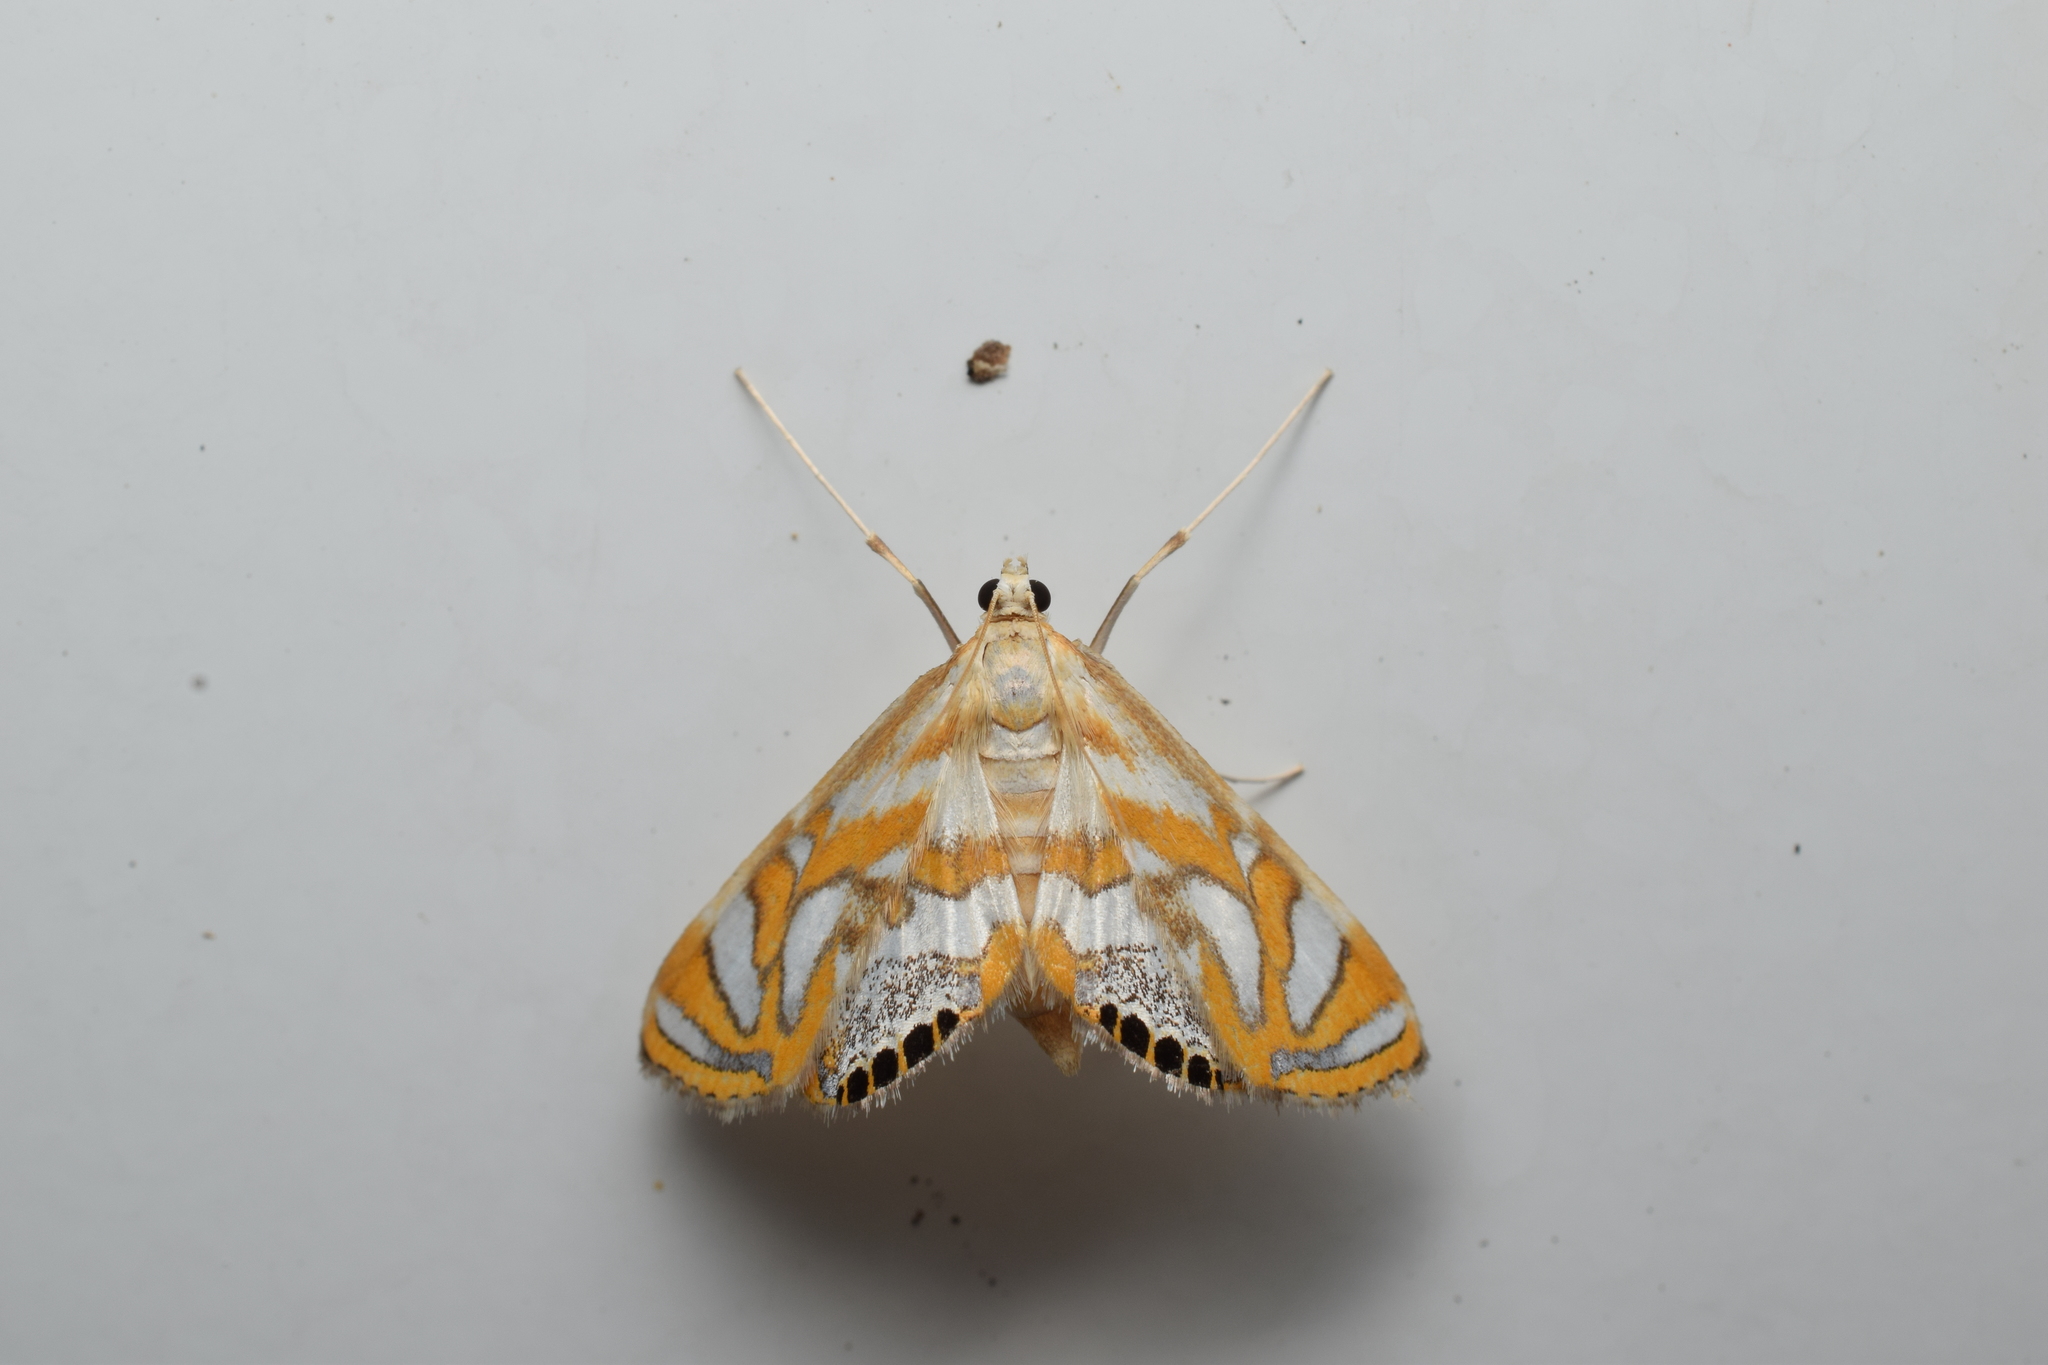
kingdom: Animalia
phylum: Arthropoda
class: Insecta
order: Lepidoptera
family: Crambidae
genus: Potamomusa
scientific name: Potamomusa midas
